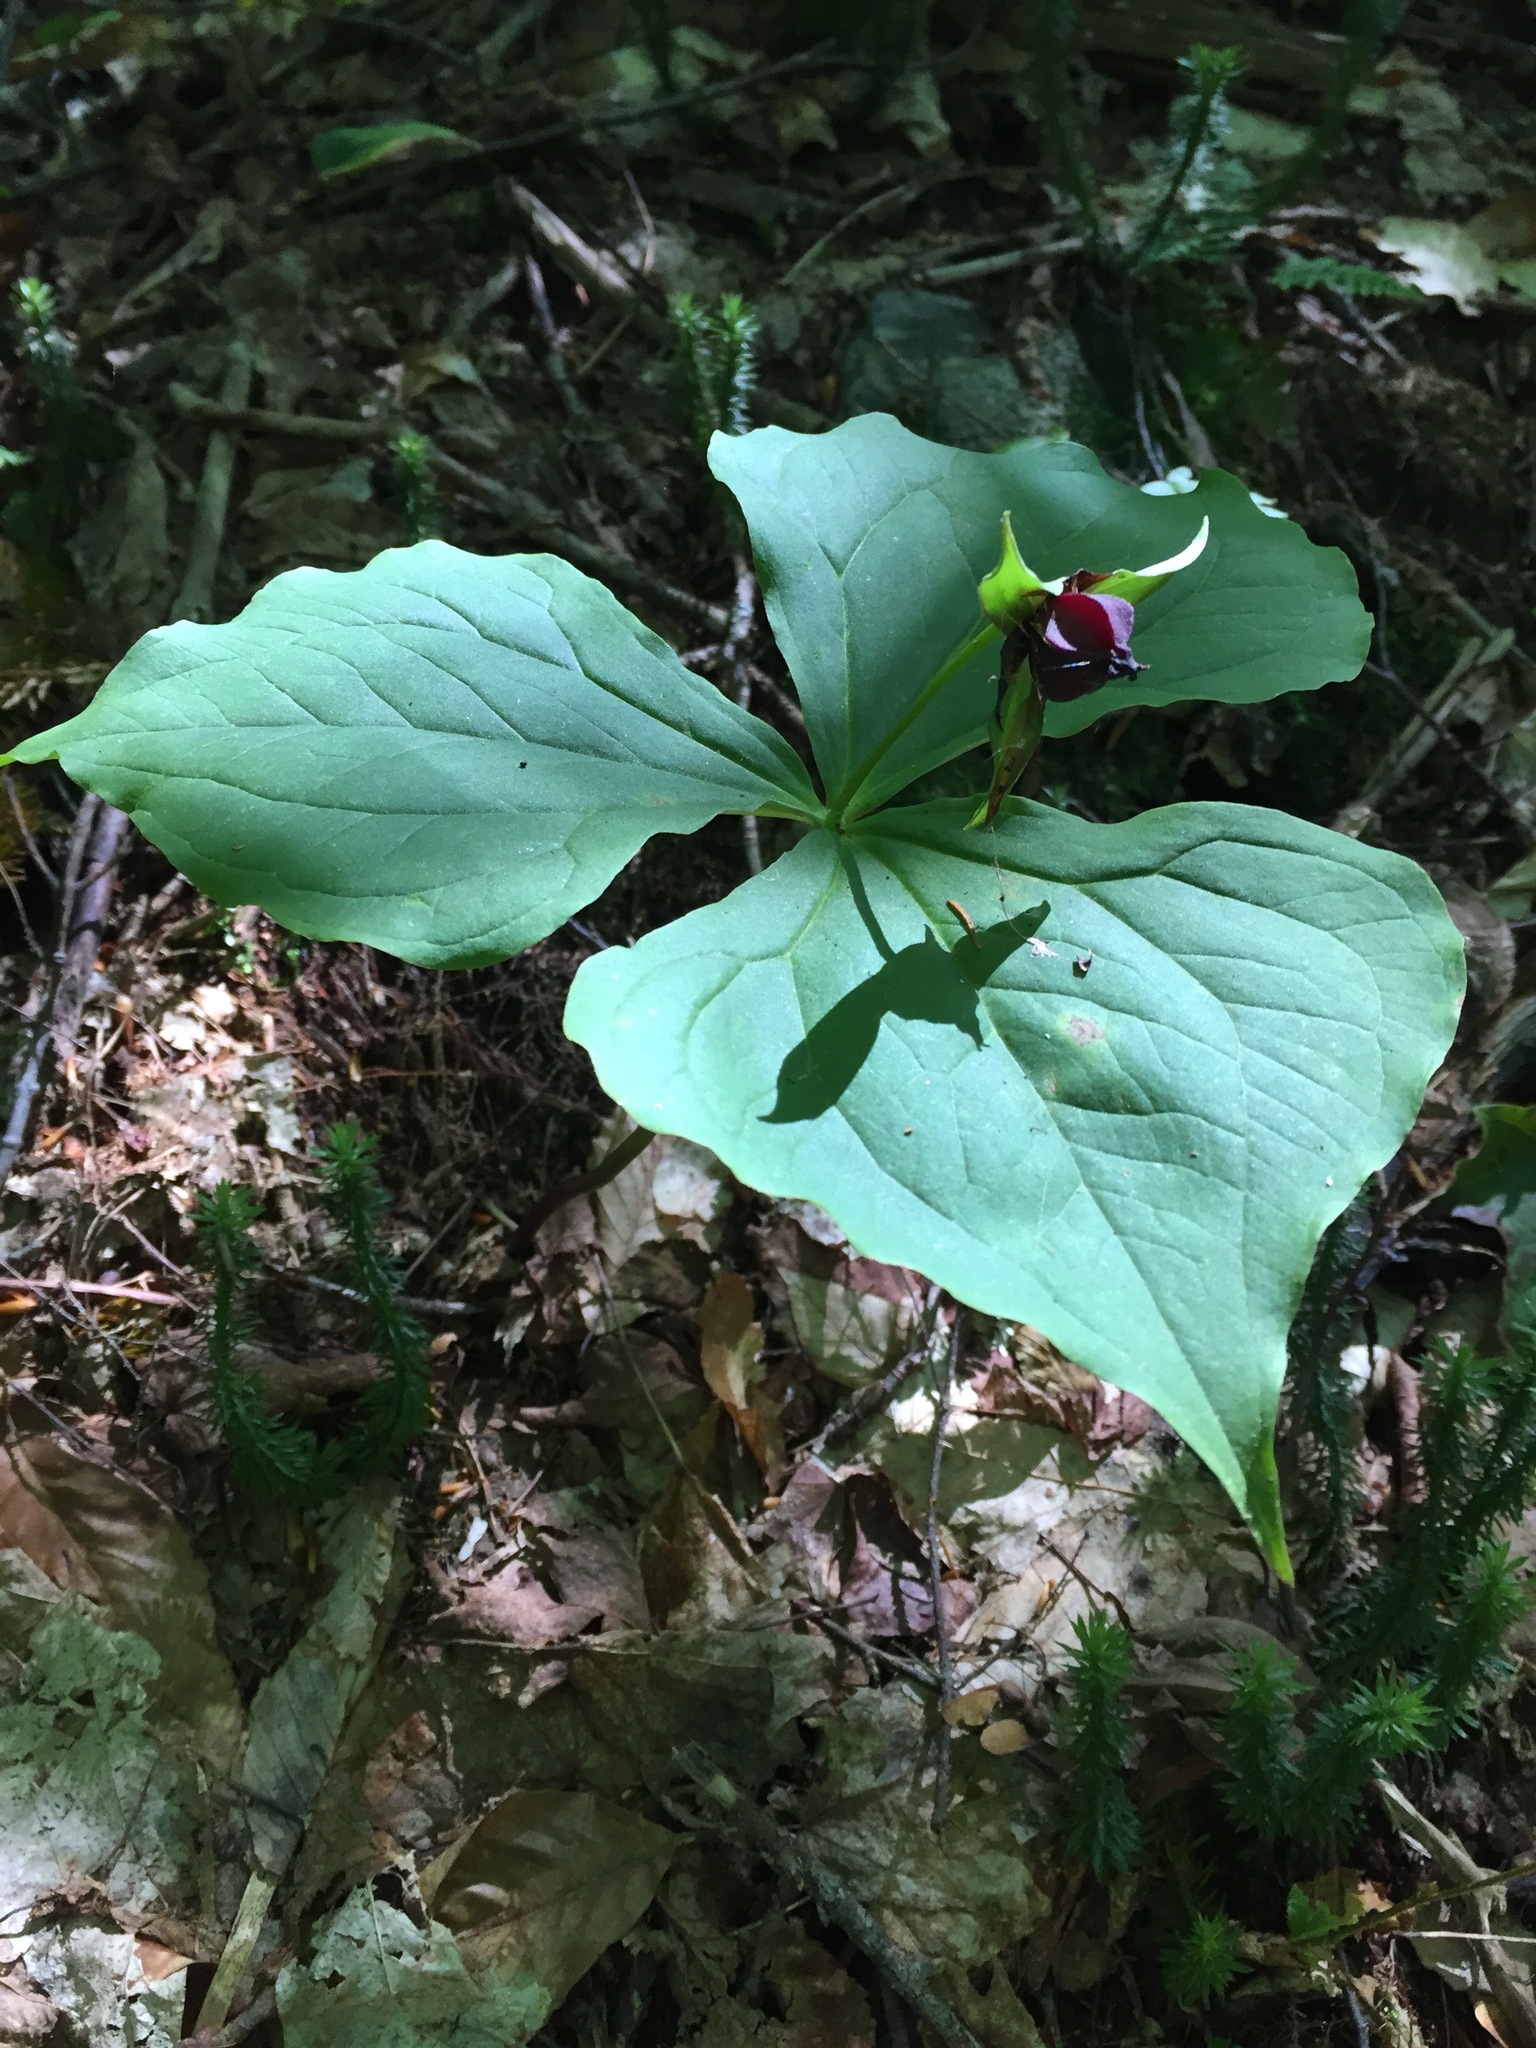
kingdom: Plantae
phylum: Tracheophyta
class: Liliopsida
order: Liliales
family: Melanthiaceae
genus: Trillium
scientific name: Trillium erectum
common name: Purple trillium
